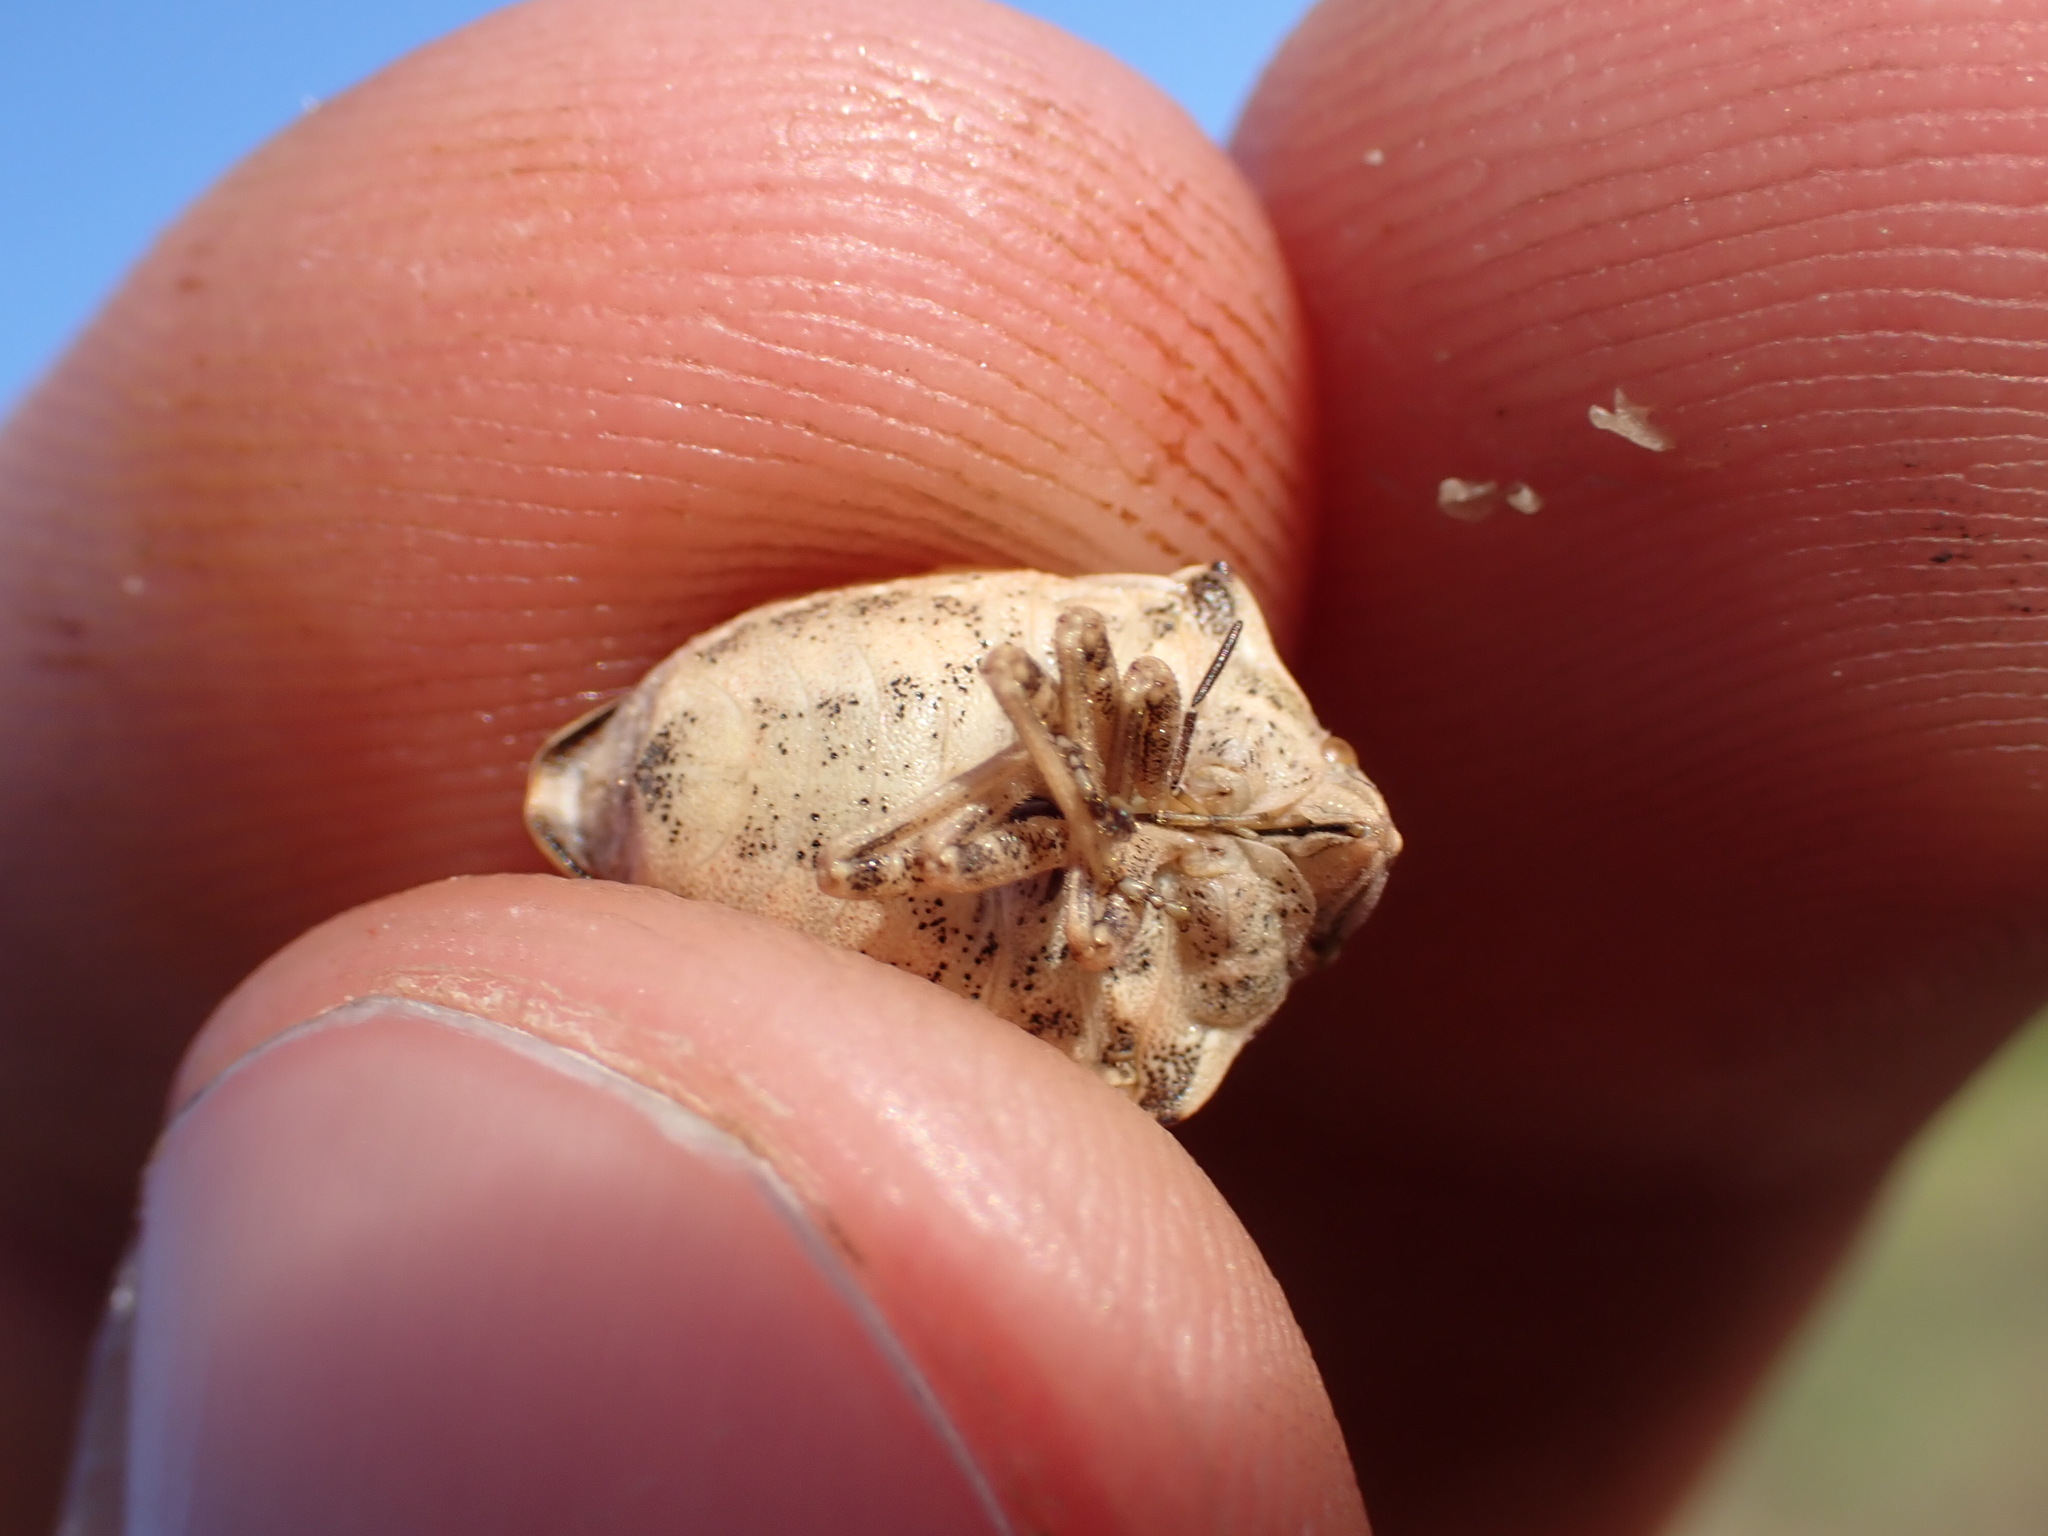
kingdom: Animalia
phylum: Arthropoda
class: Insecta
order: Hemiptera
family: Scutelleridae
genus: Odontotarsus
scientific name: Odontotarsus robustus
